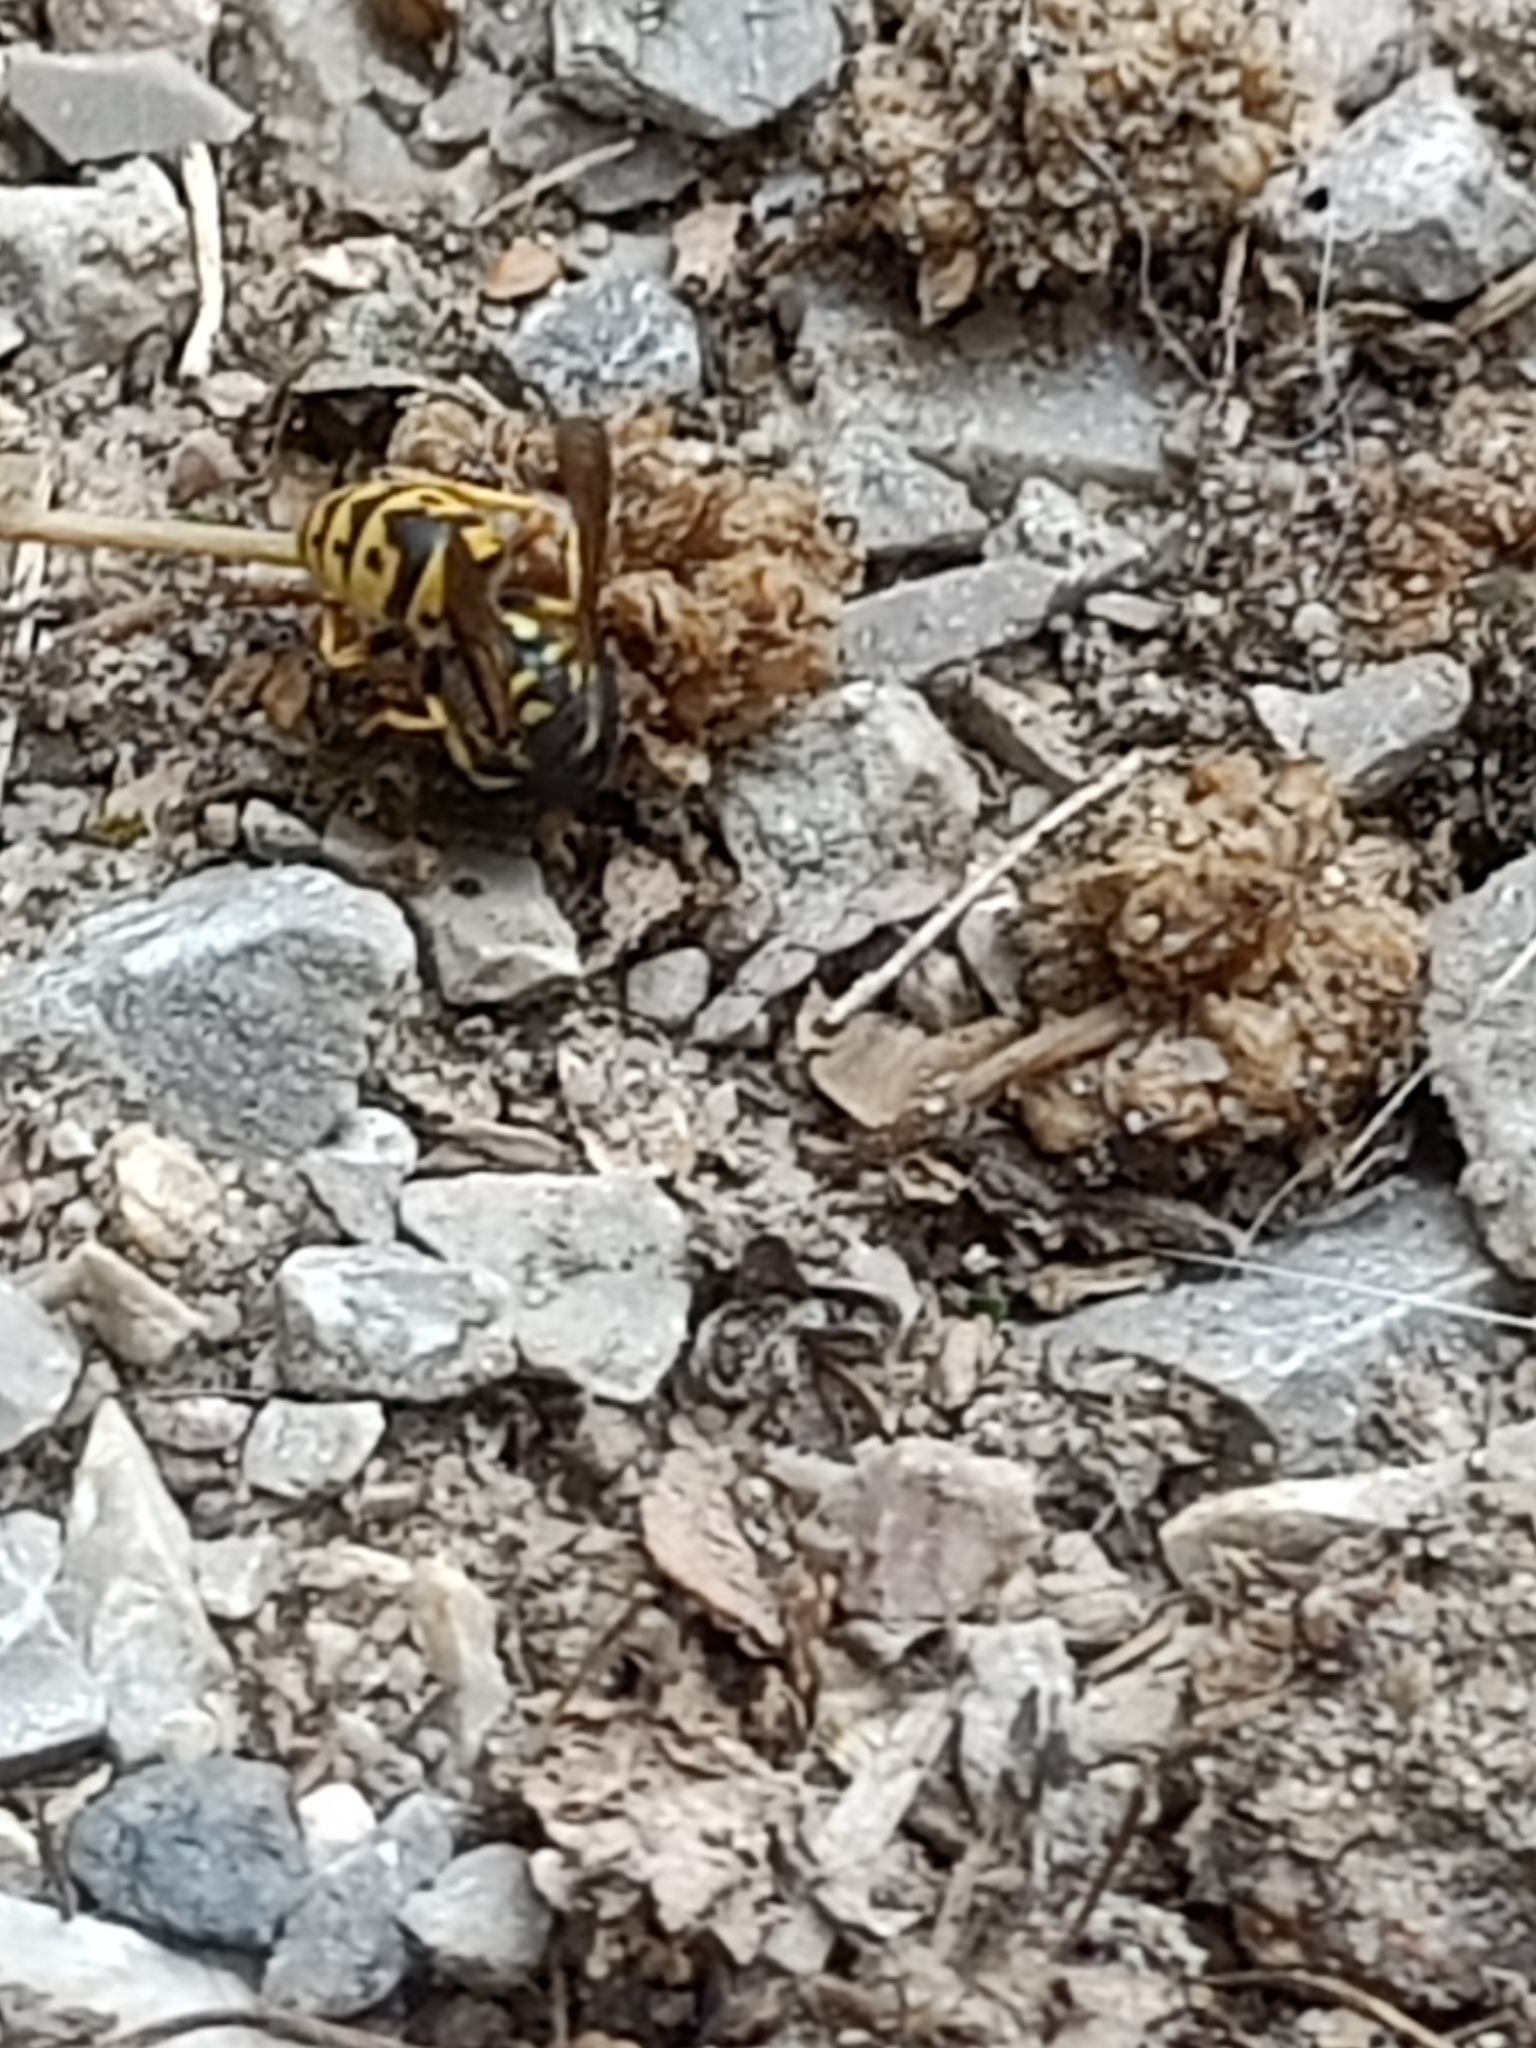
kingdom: Animalia
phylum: Arthropoda
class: Insecta
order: Hymenoptera
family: Vespidae
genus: Vespula
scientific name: Vespula germanica
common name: German wasp
